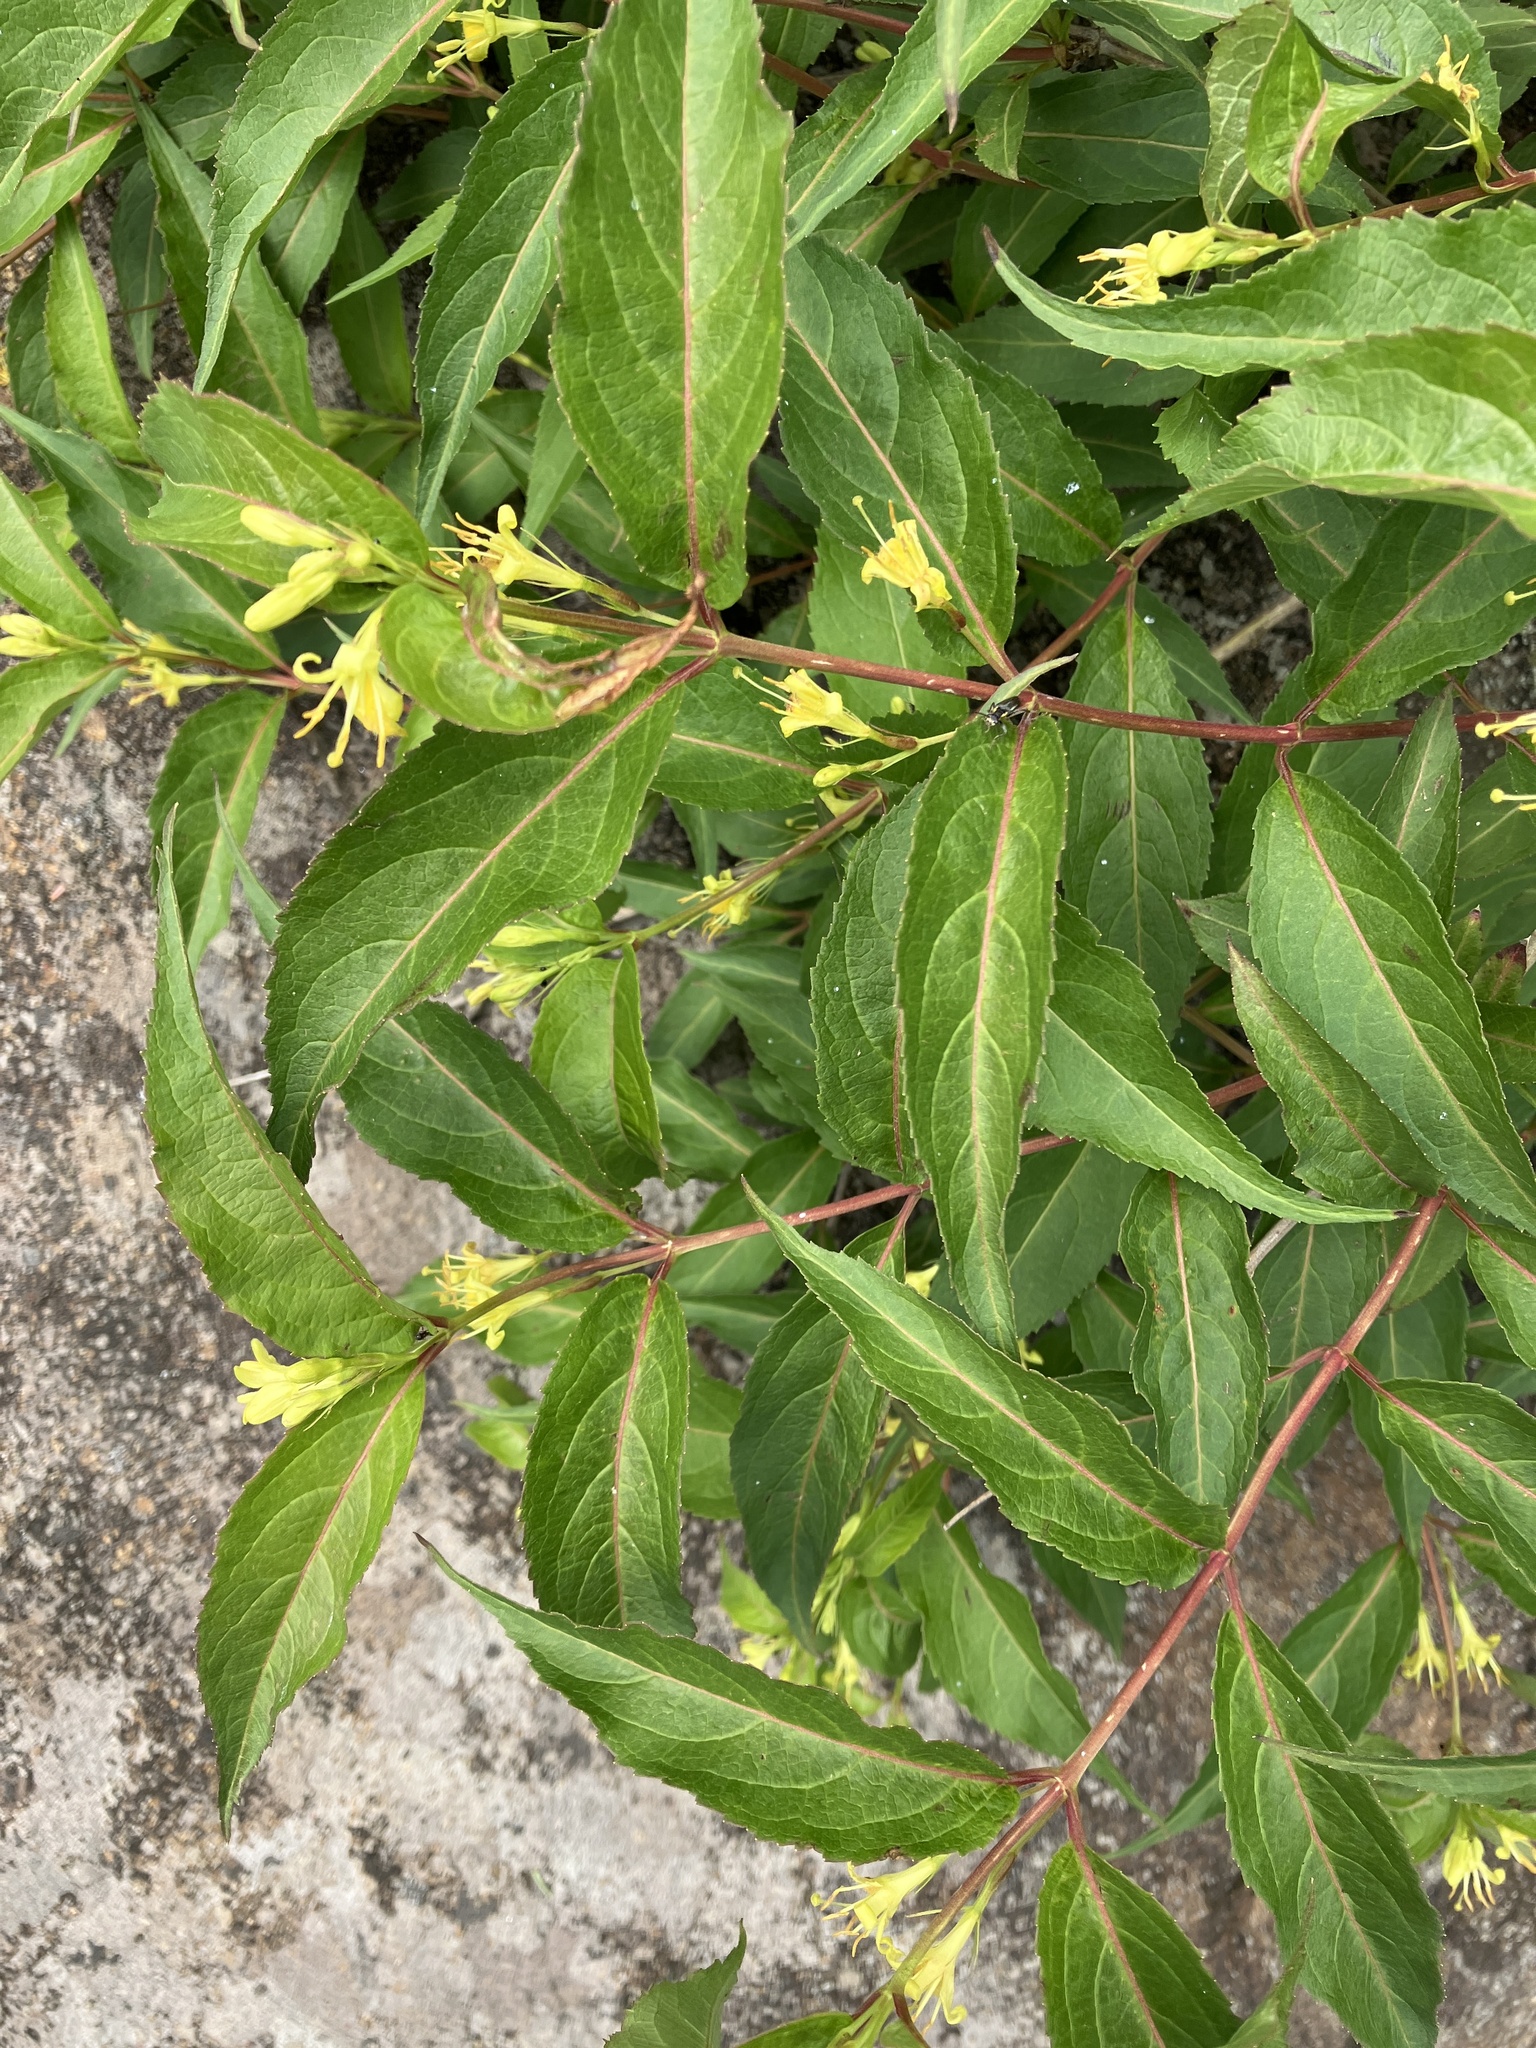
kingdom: Plantae
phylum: Tracheophyta
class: Magnoliopsida
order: Dipsacales
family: Caprifoliaceae
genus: Diervilla
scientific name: Diervilla lonicera
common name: Bush-honeysuckle
